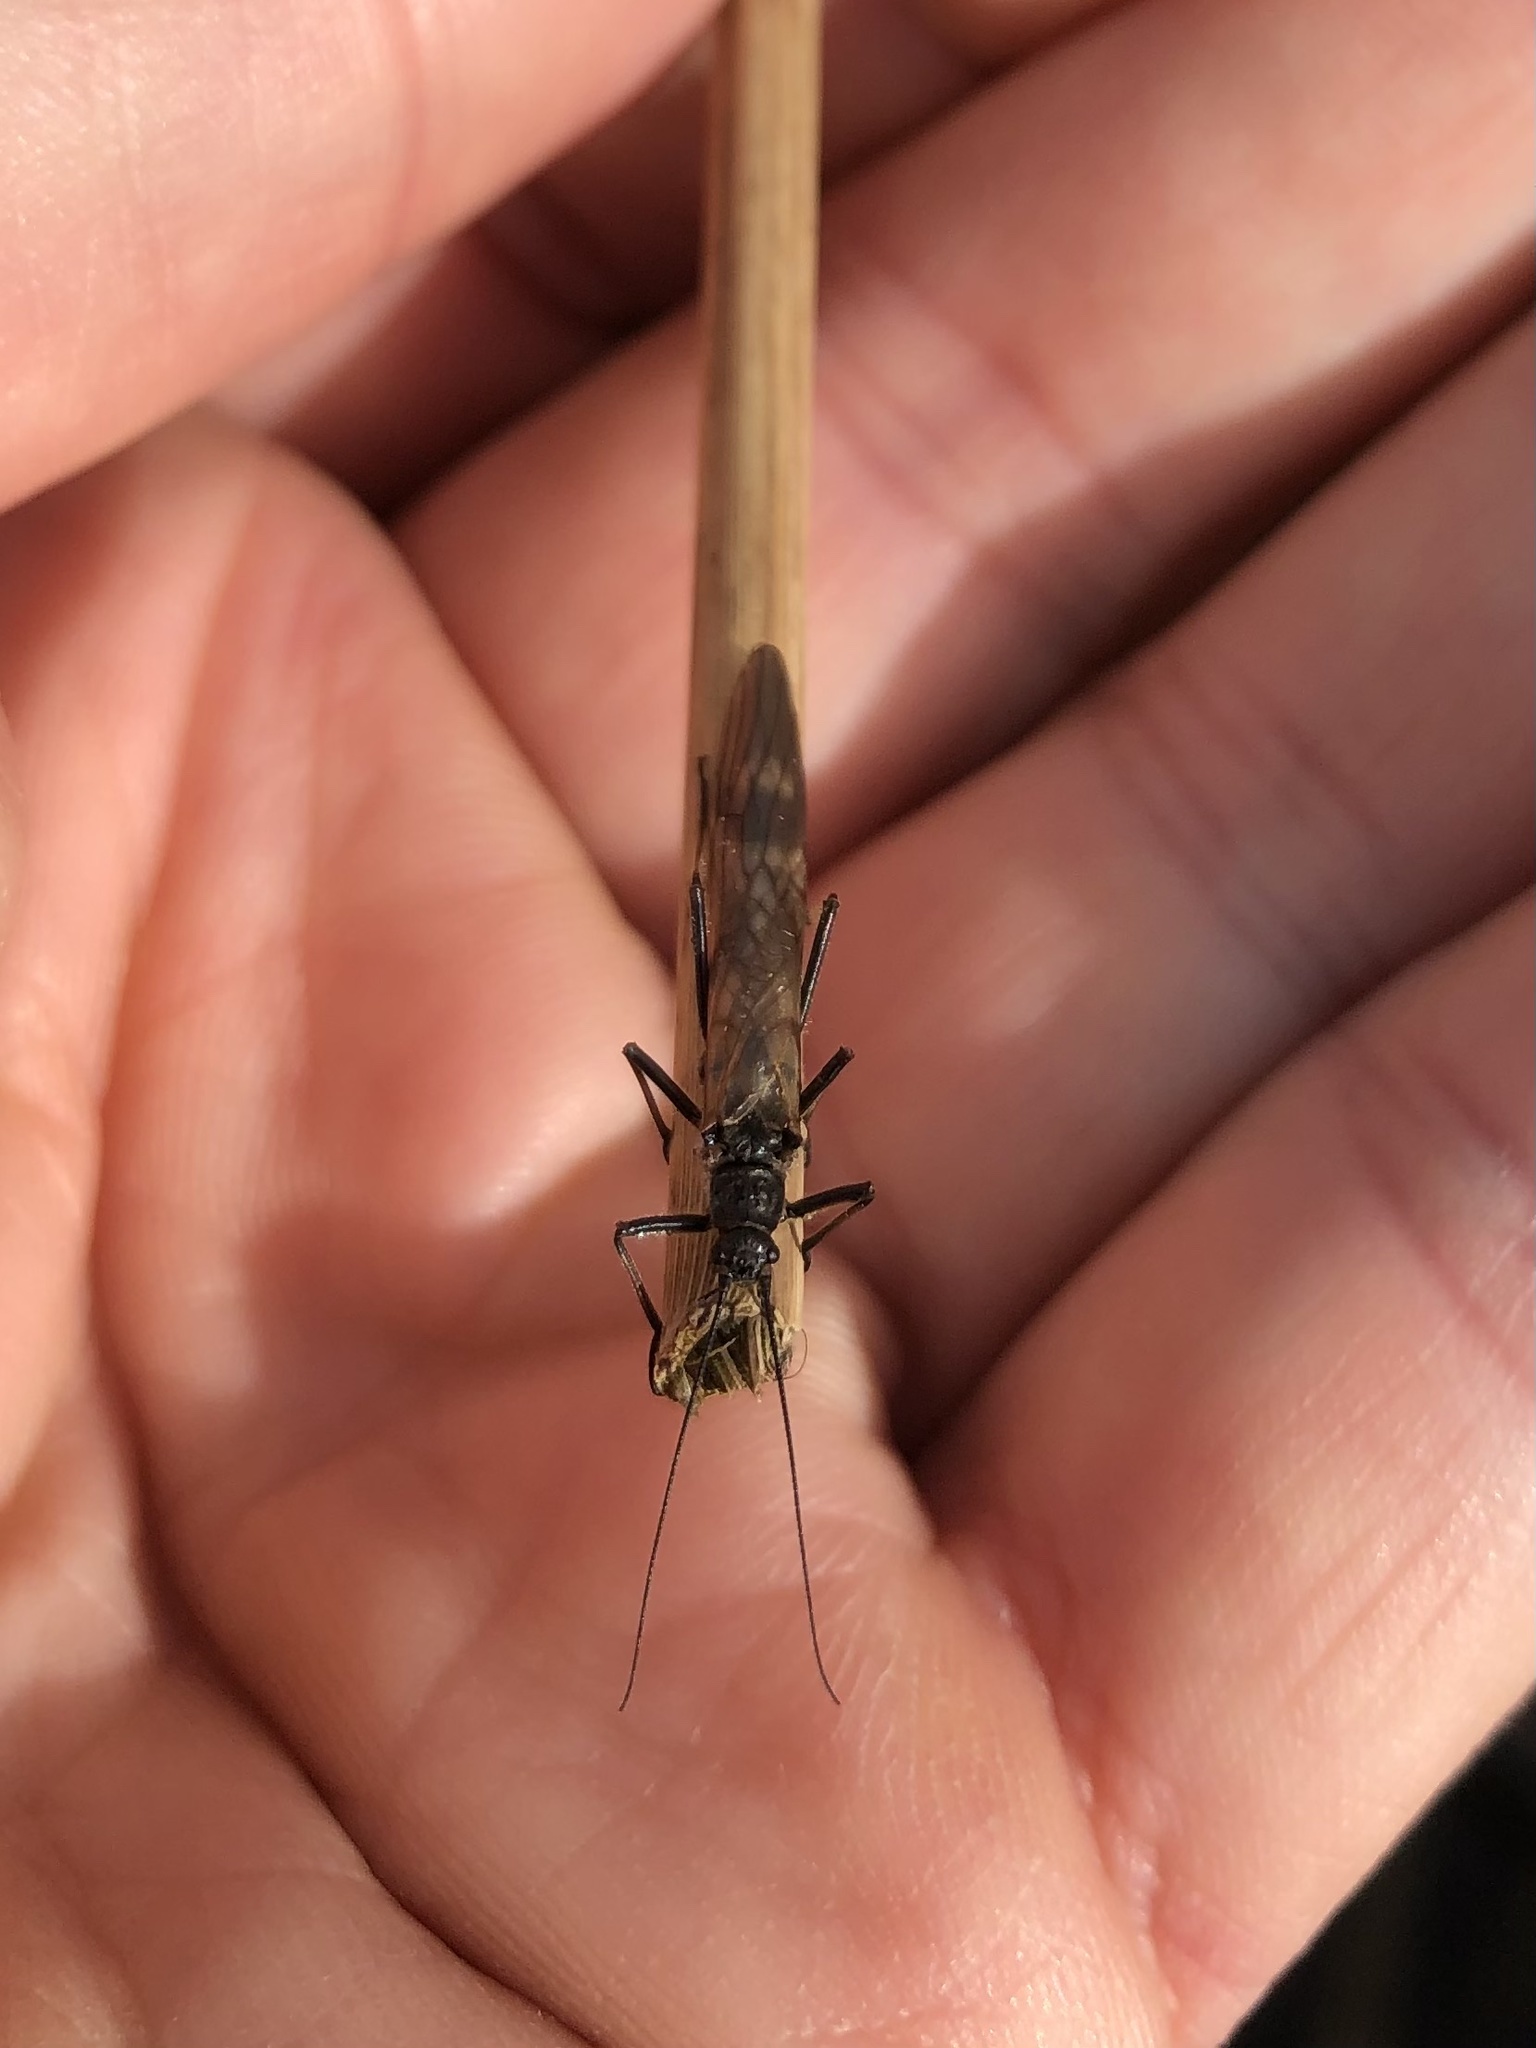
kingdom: Animalia
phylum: Arthropoda
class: Insecta
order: Plecoptera
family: Taeniopterygidae
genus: Taeniopteryx
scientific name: Taeniopteryx nebulosa
